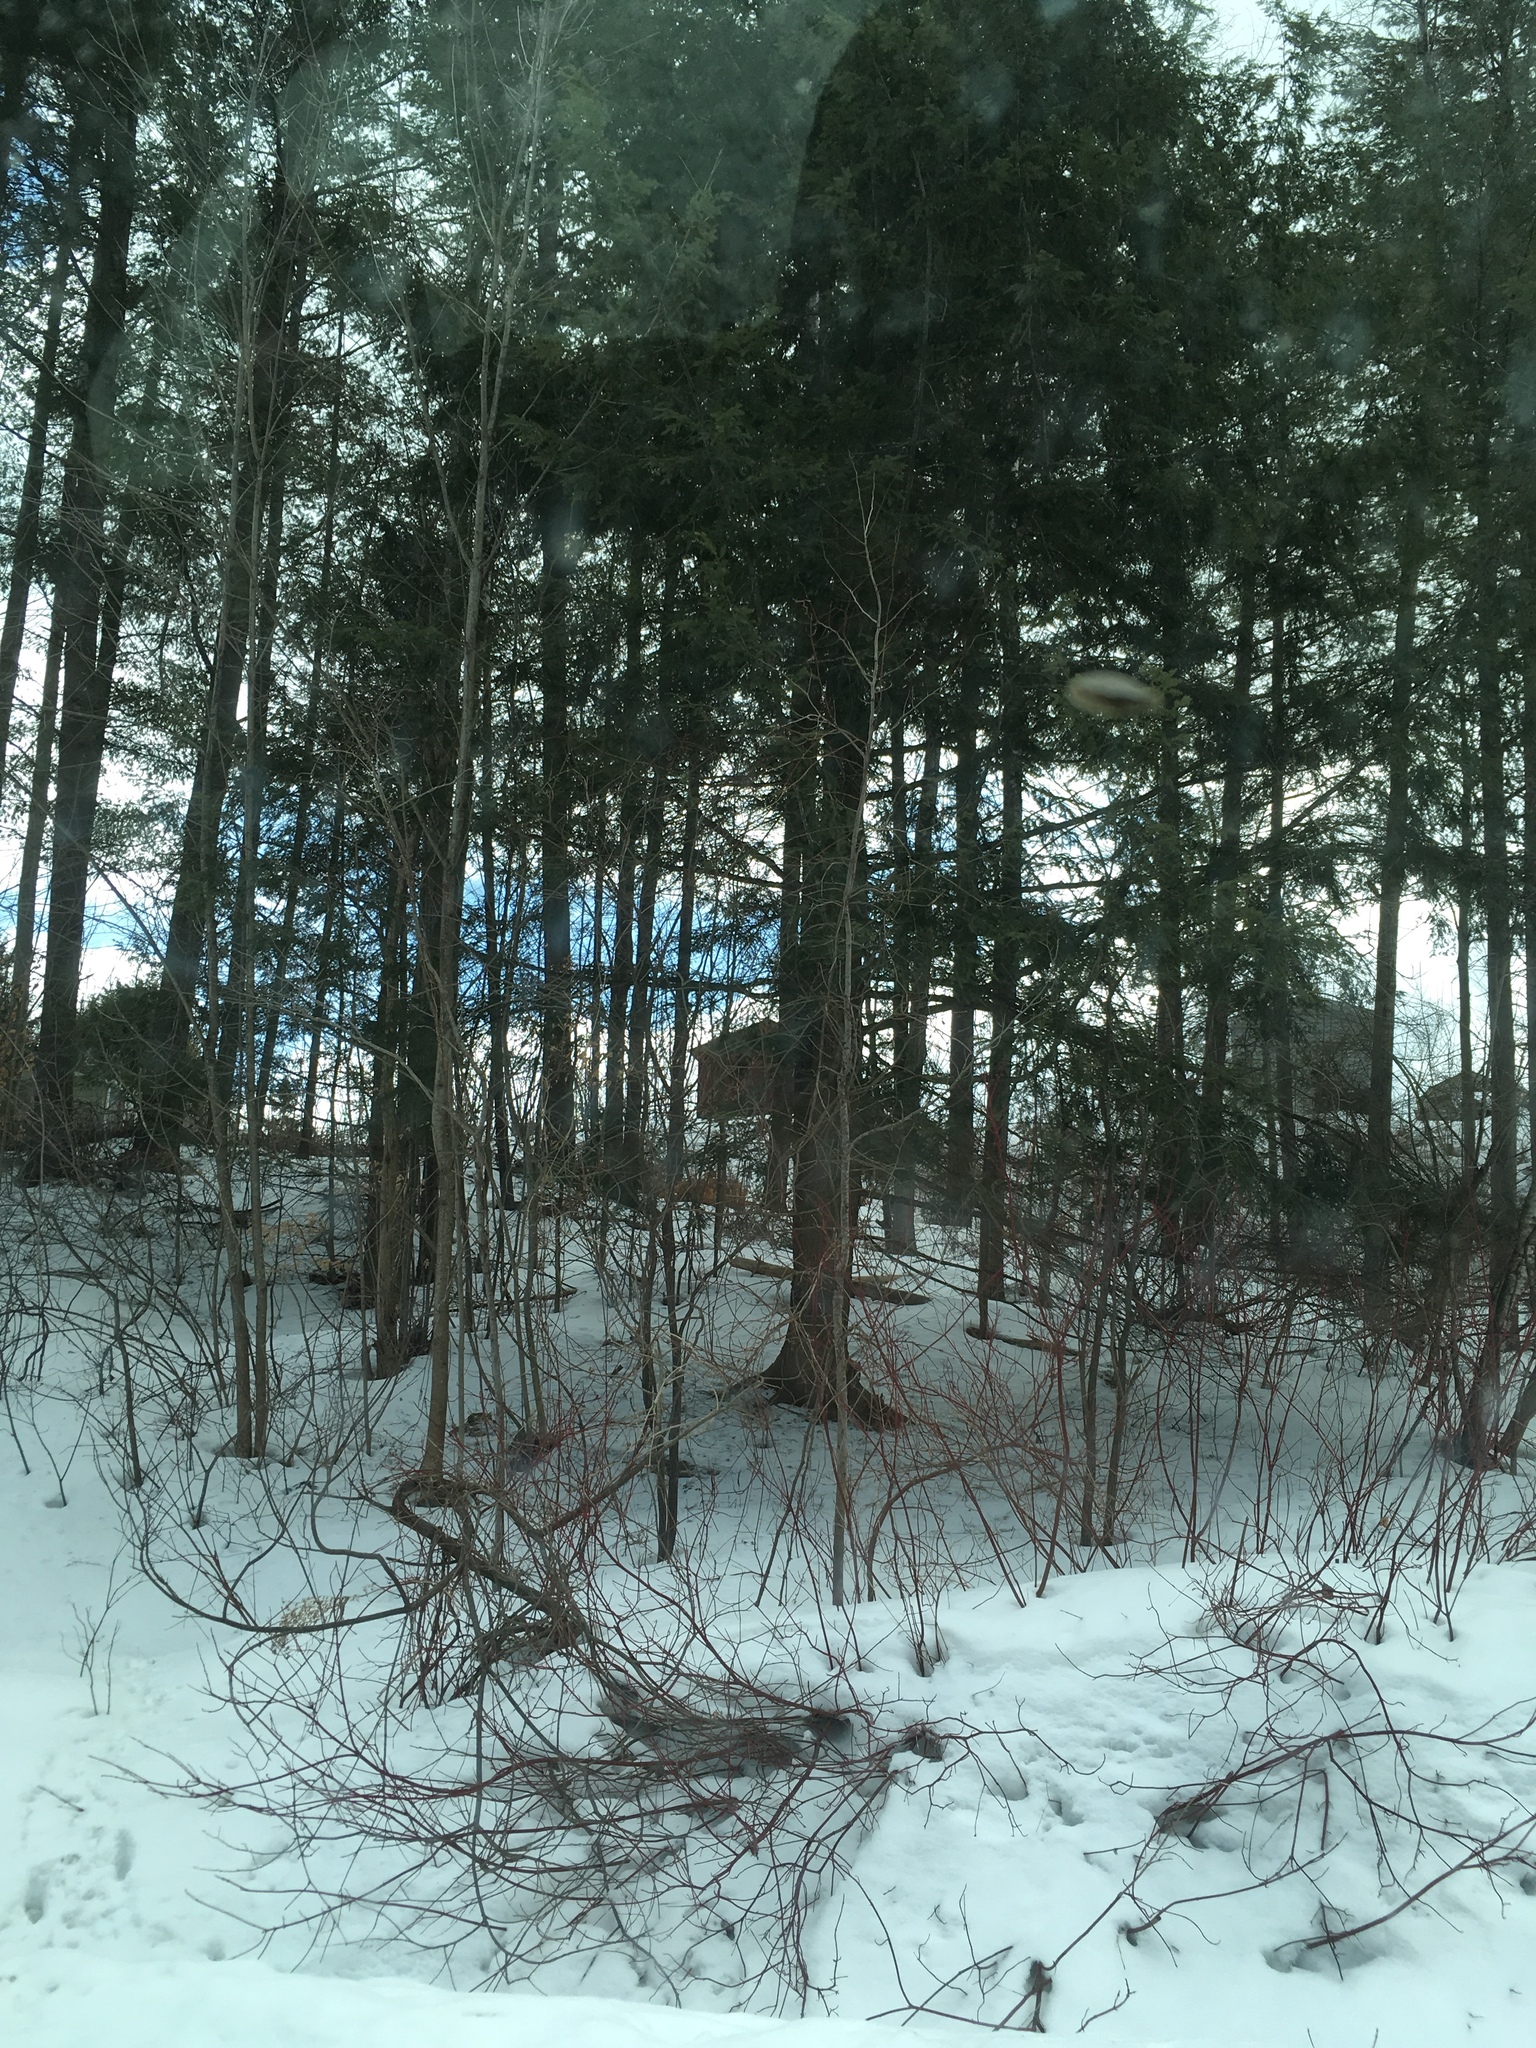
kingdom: Plantae
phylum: Tracheophyta
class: Pinopsida
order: Pinales
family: Pinaceae
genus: Tsuga
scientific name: Tsuga canadensis
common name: Eastern hemlock
